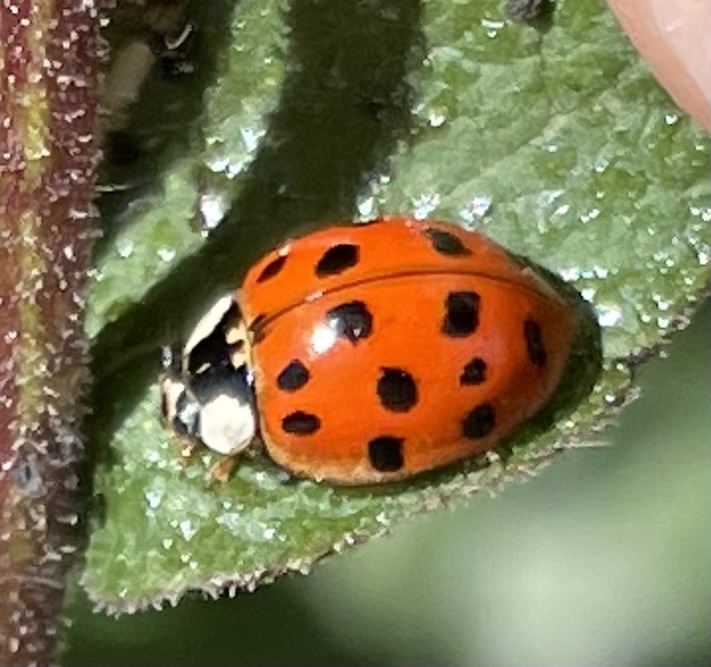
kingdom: Animalia
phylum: Arthropoda
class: Insecta
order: Coleoptera
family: Coccinellidae
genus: Harmonia
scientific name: Harmonia axyridis
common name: Harlequin ladybird
